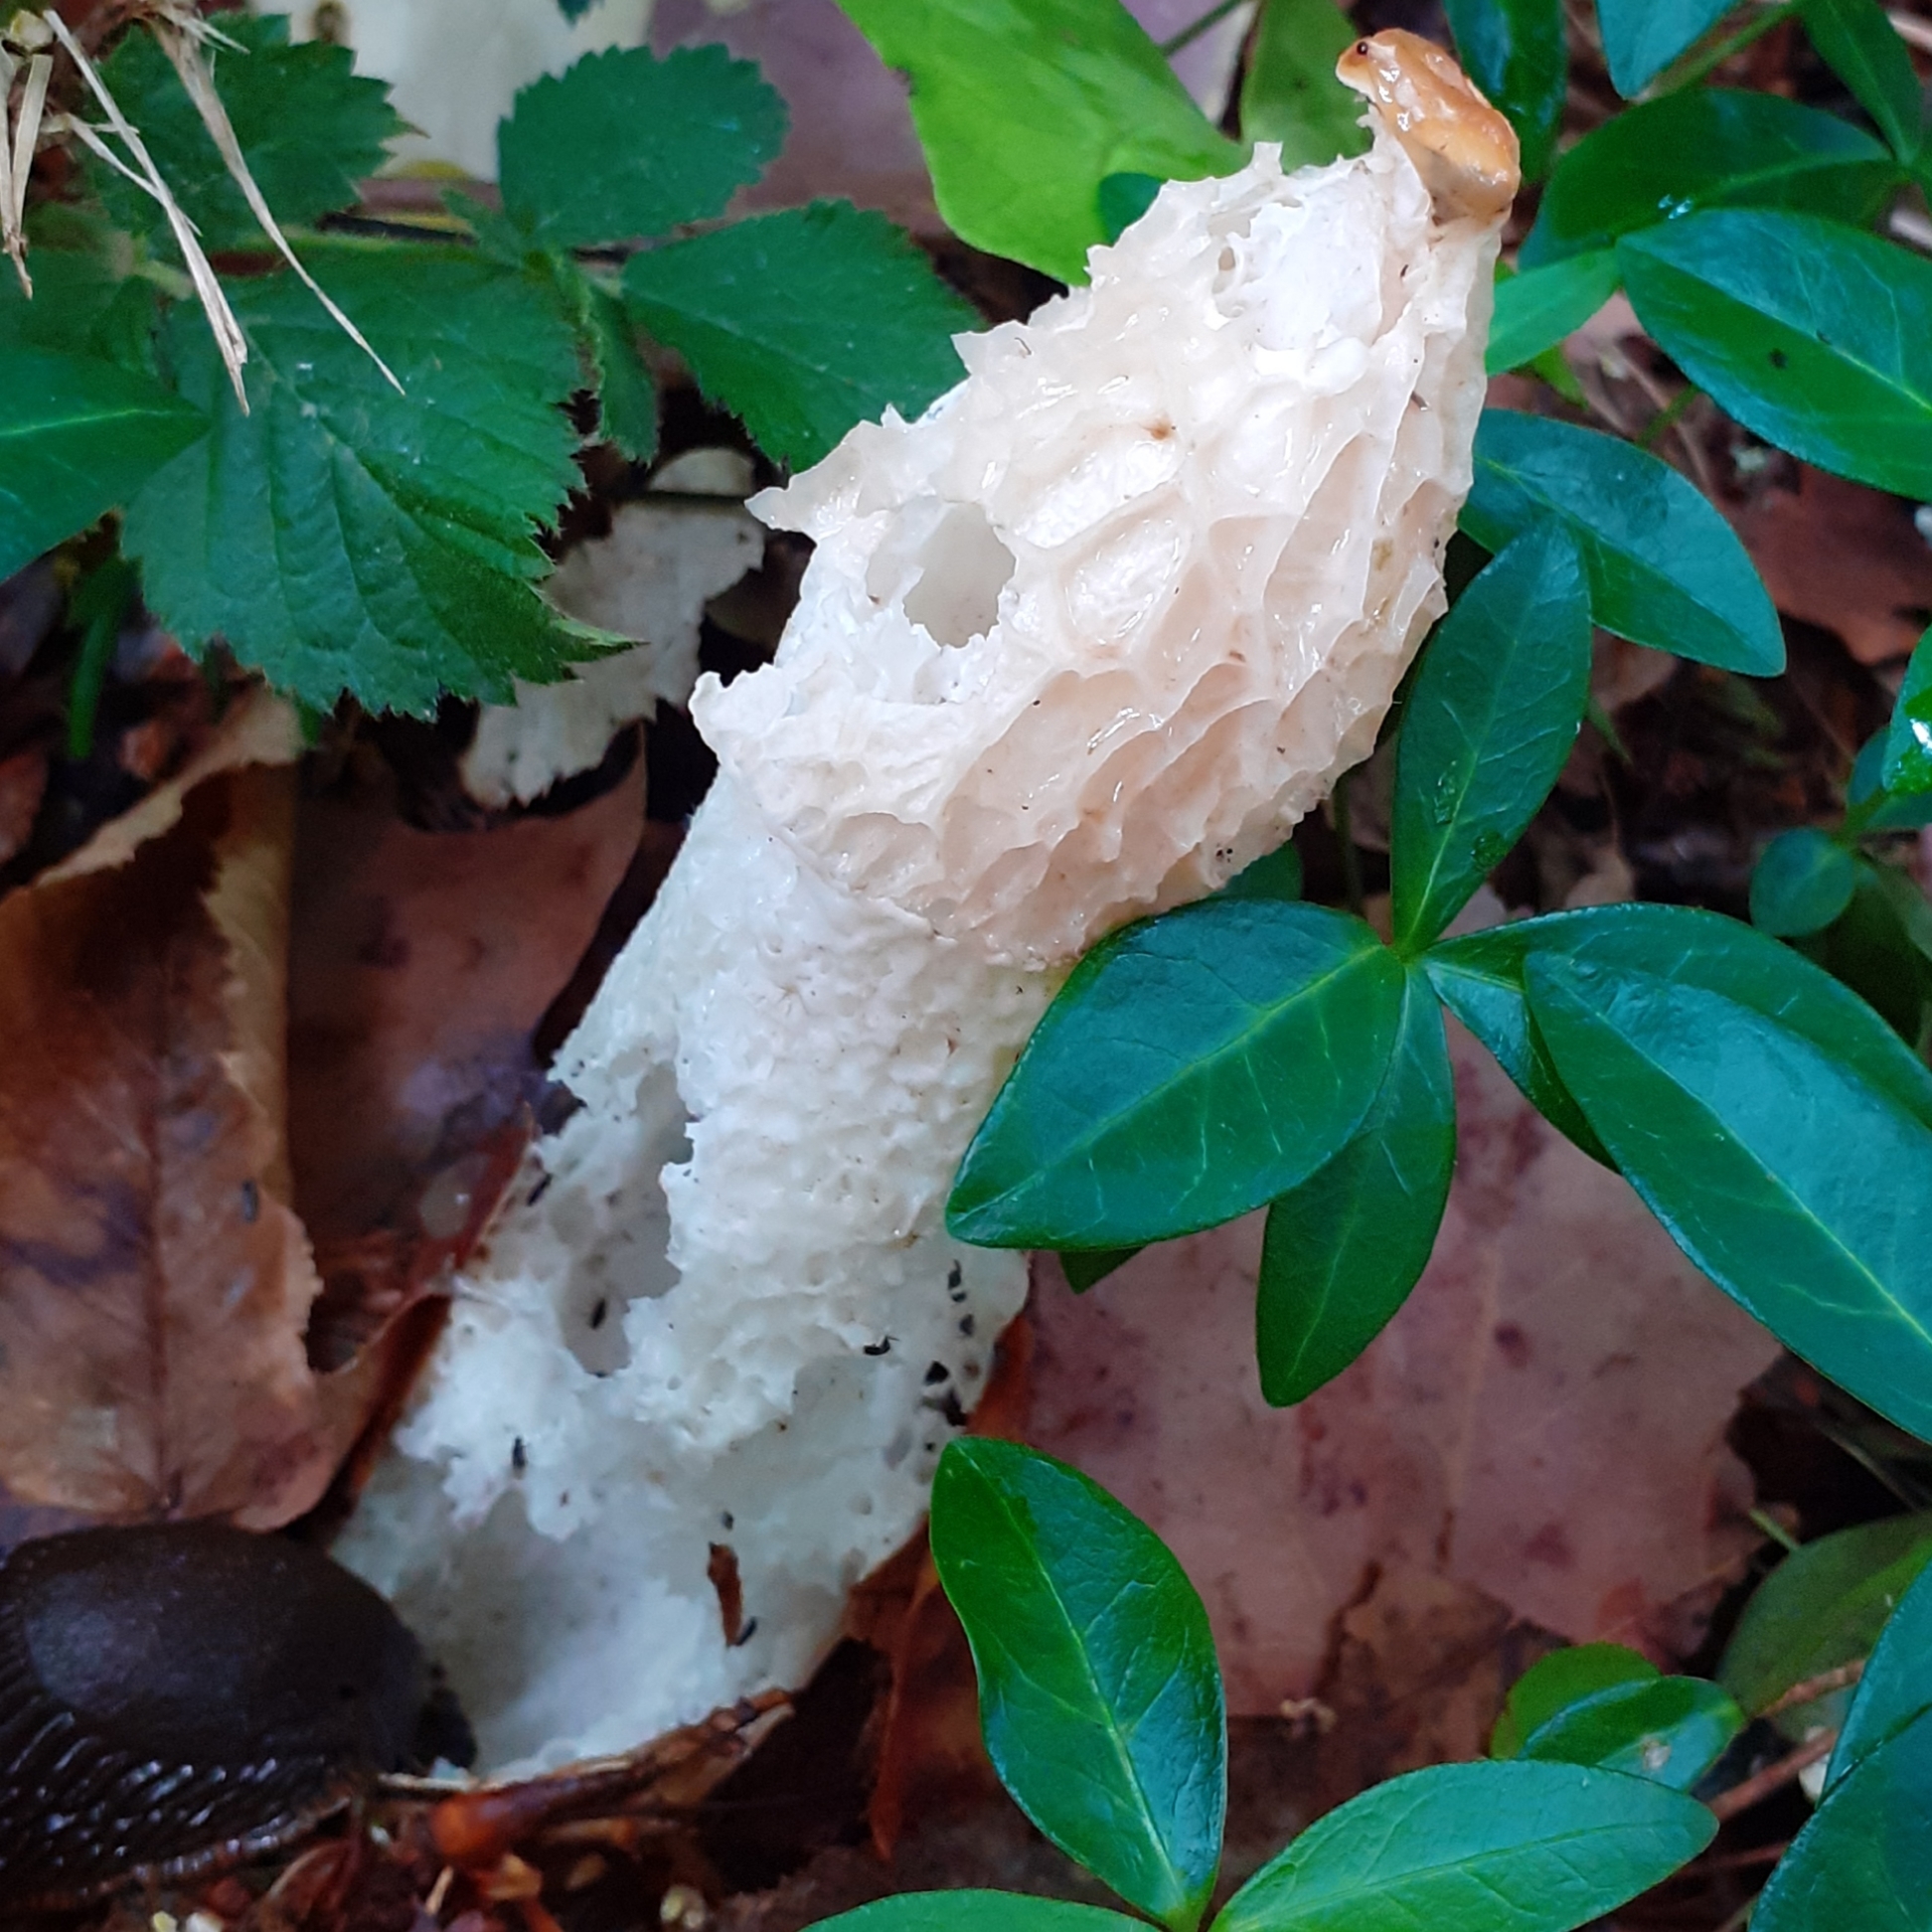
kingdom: Fungi
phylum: Basidiomycota
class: Agaricomycetes
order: Phallales
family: Phallaceae
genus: Phallus
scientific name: Phallus impudicus
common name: Common stinkhorn
